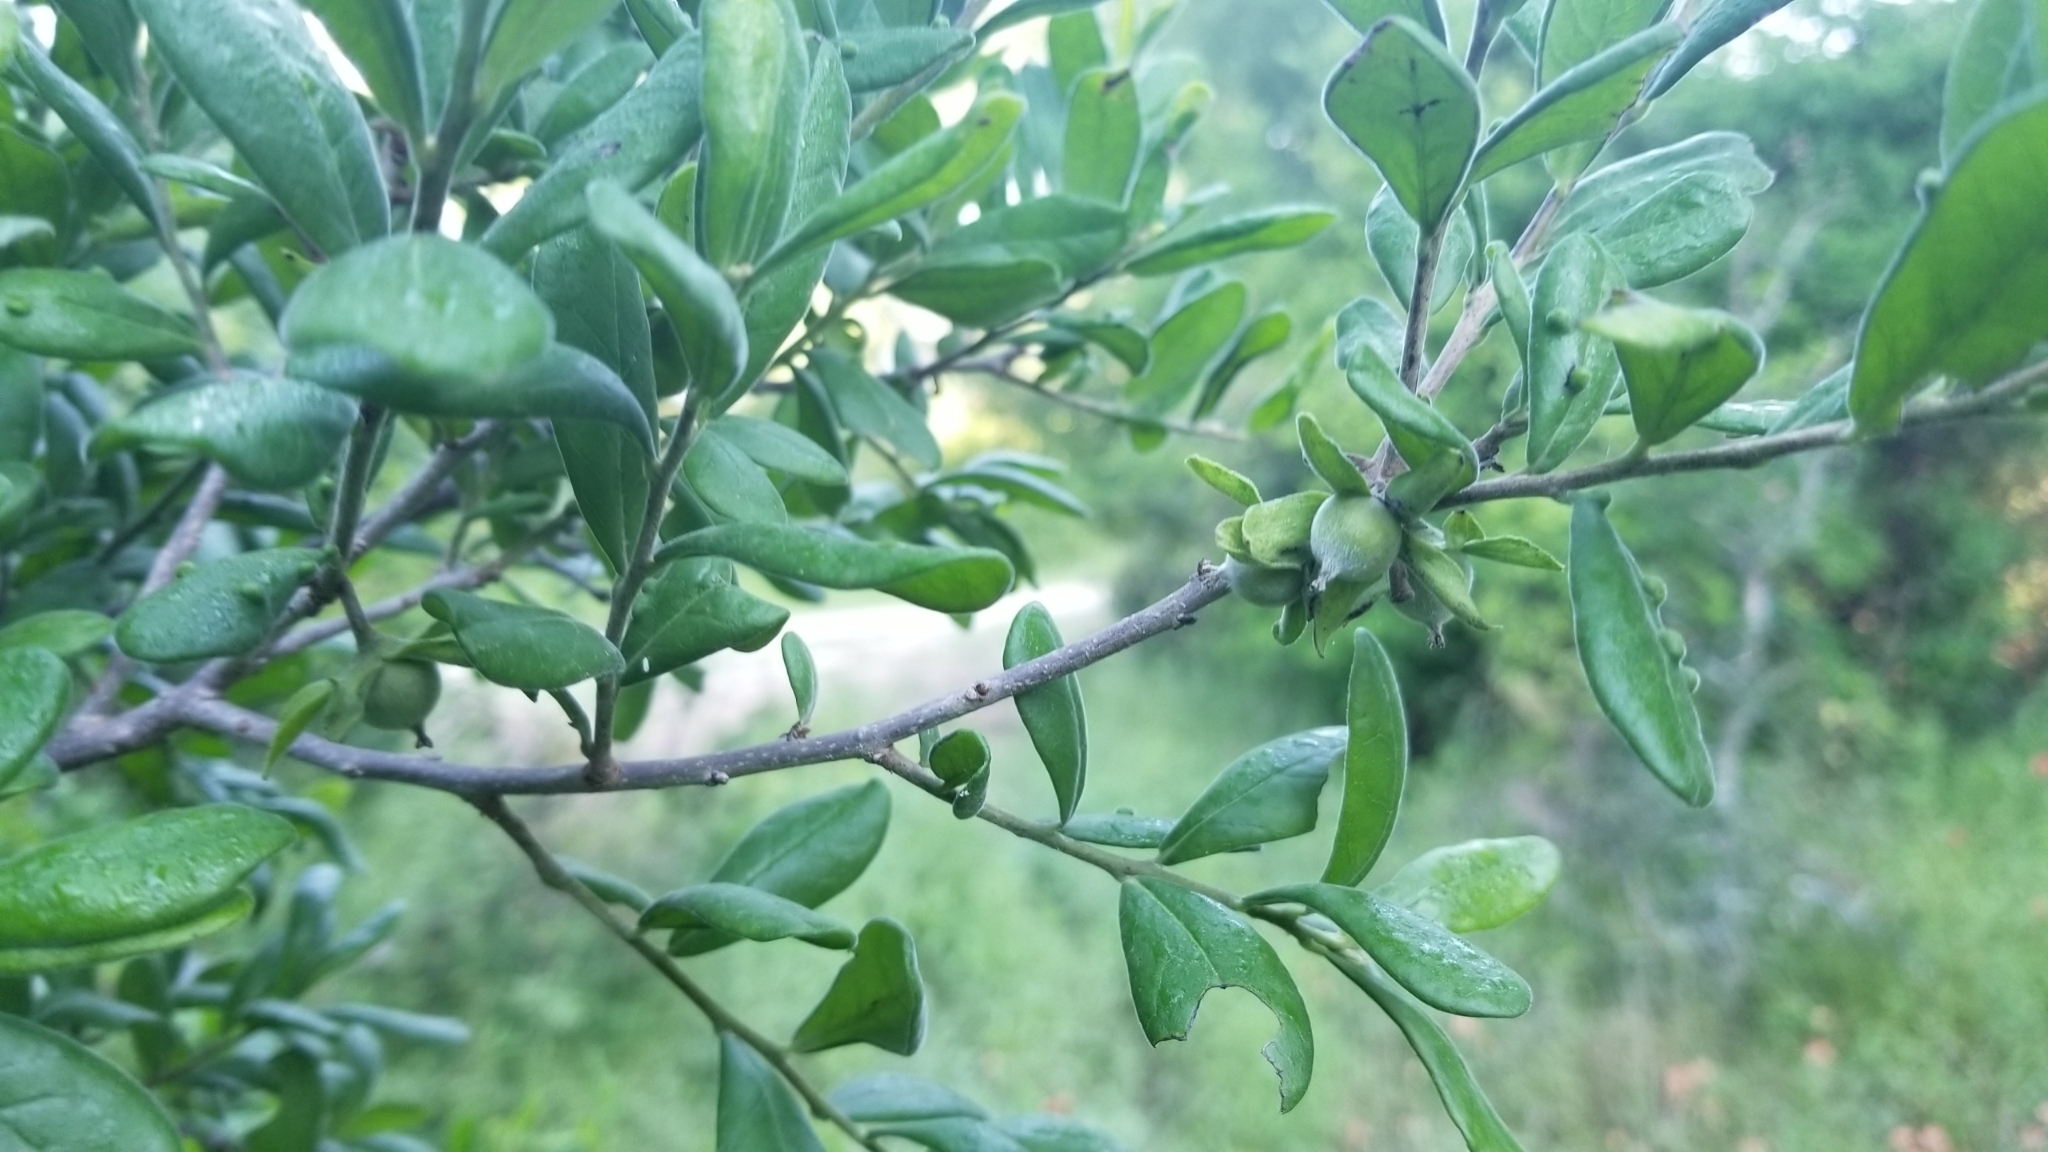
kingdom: Plantae
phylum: Tracheophyta
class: Magnoliopsida
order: Ericales
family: Ebenaceae
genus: Diospyros
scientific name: Diospyros texana
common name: Texas persimmon
